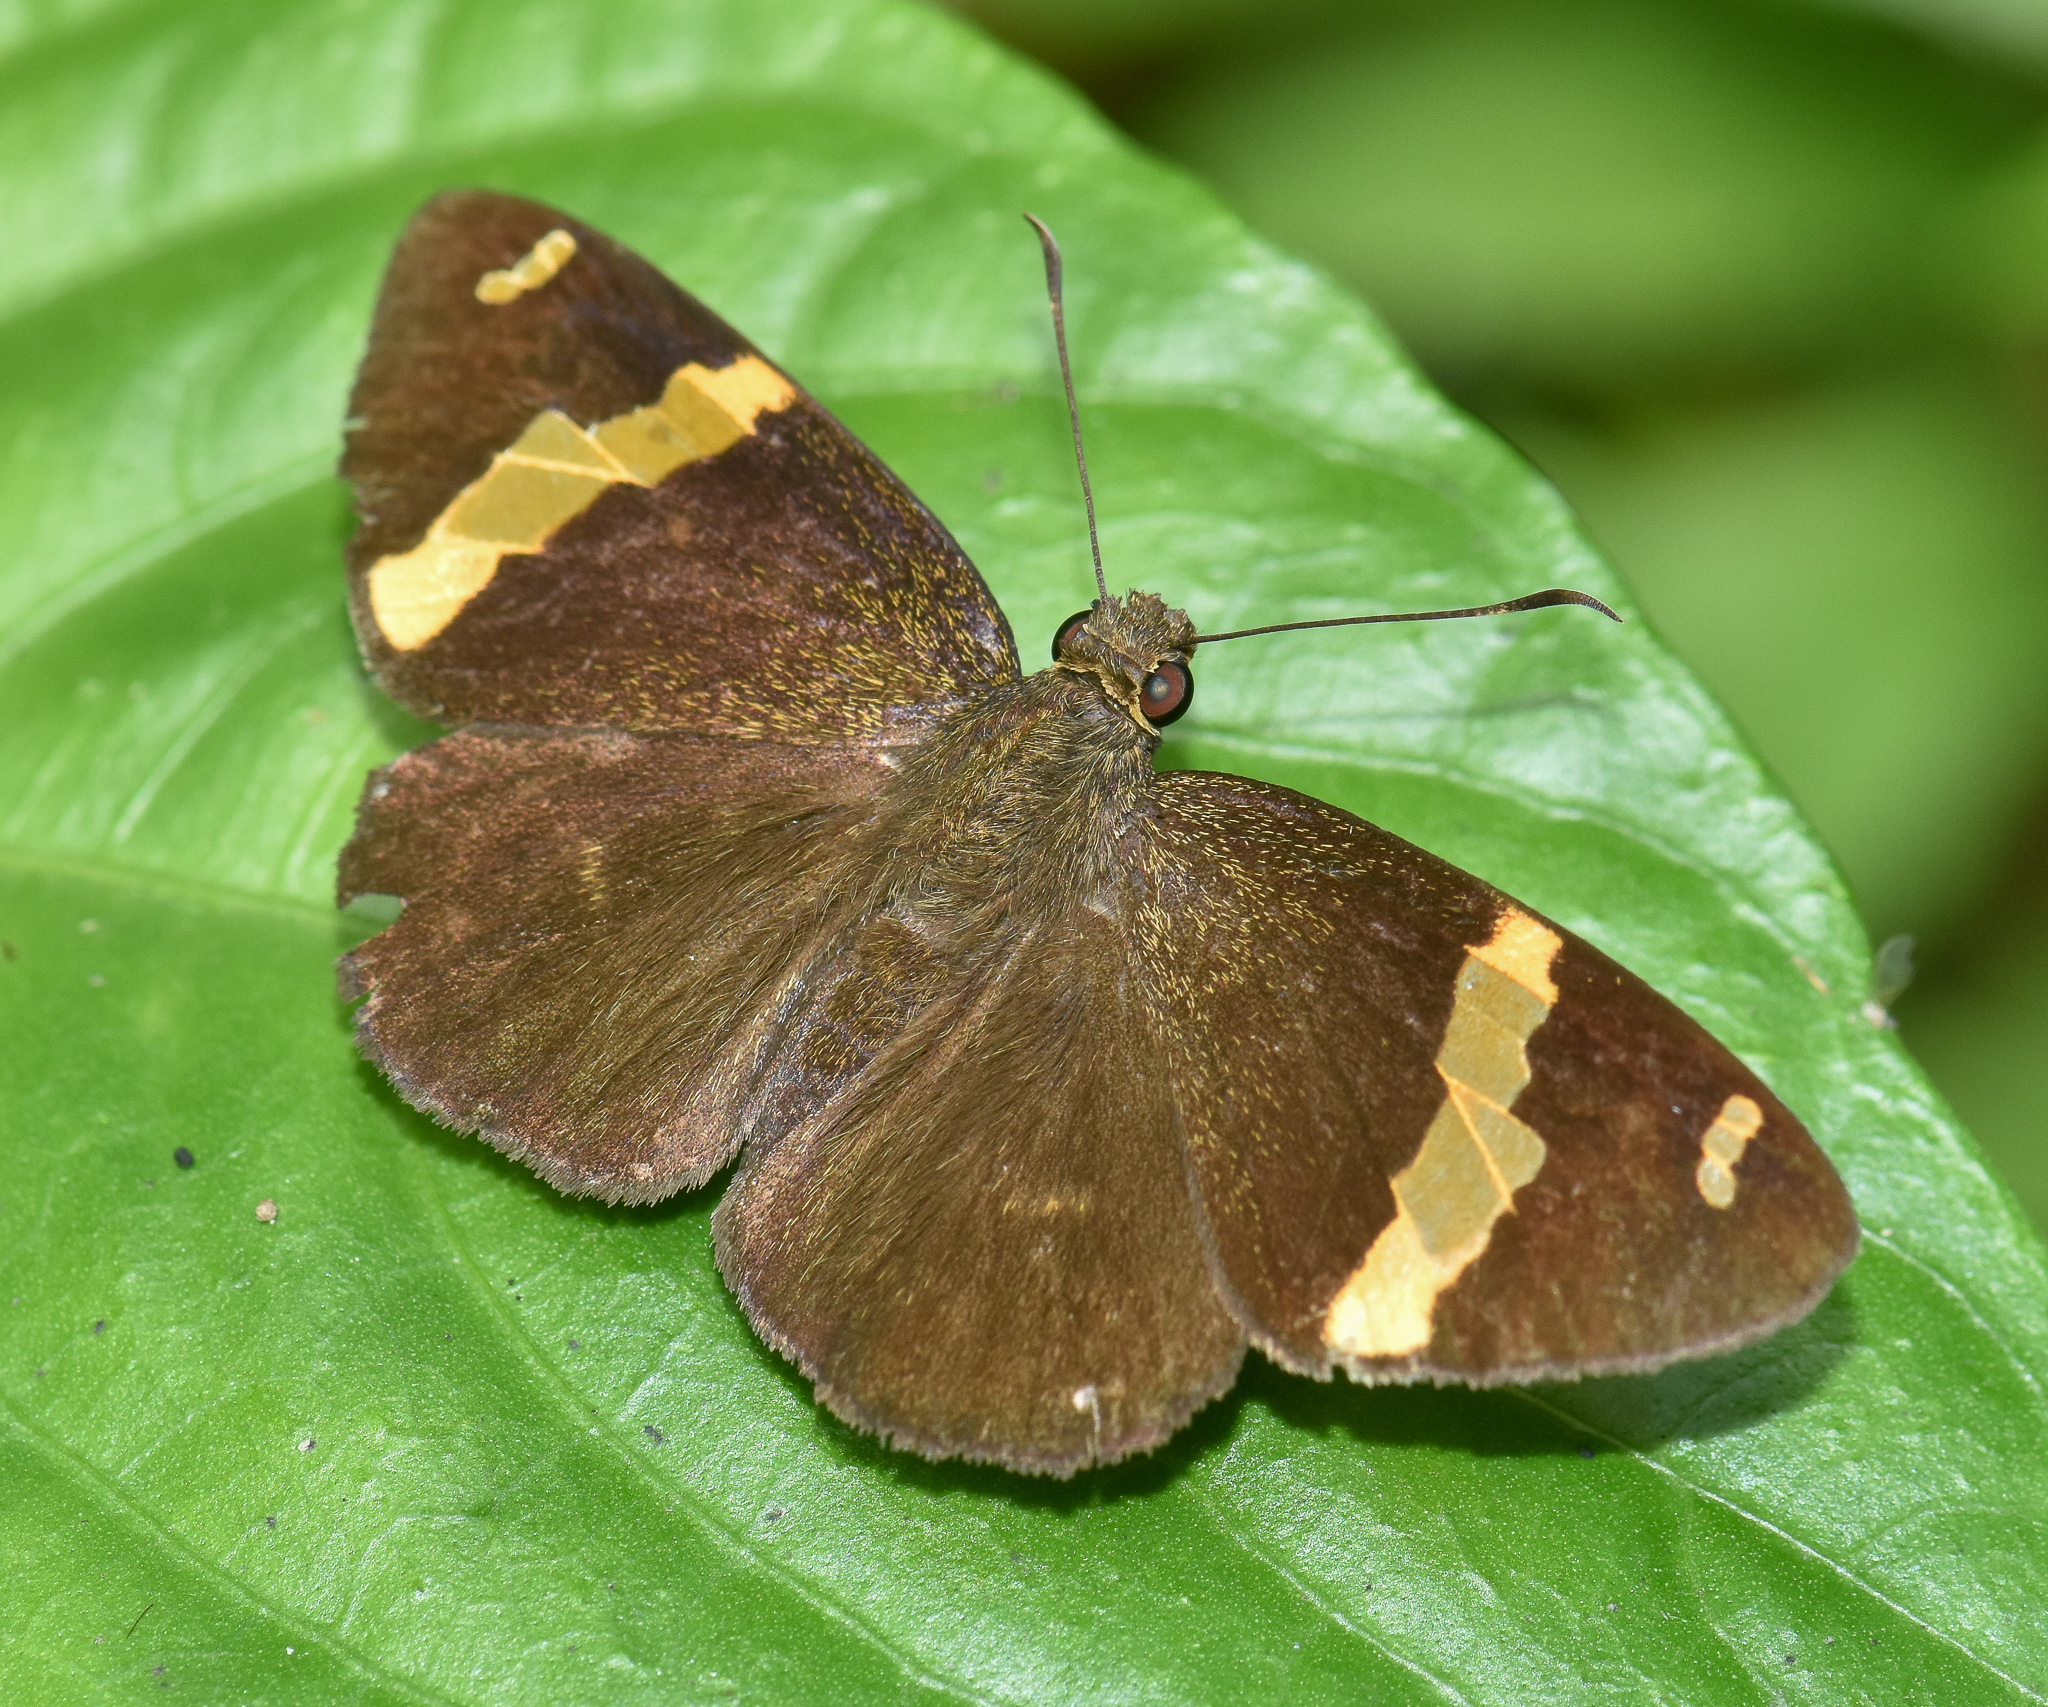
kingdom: Animalia
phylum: Arthropoda
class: Insecta
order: Lepidoptera
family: Hesperiidae
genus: Aurivittia
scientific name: Aurivittia
